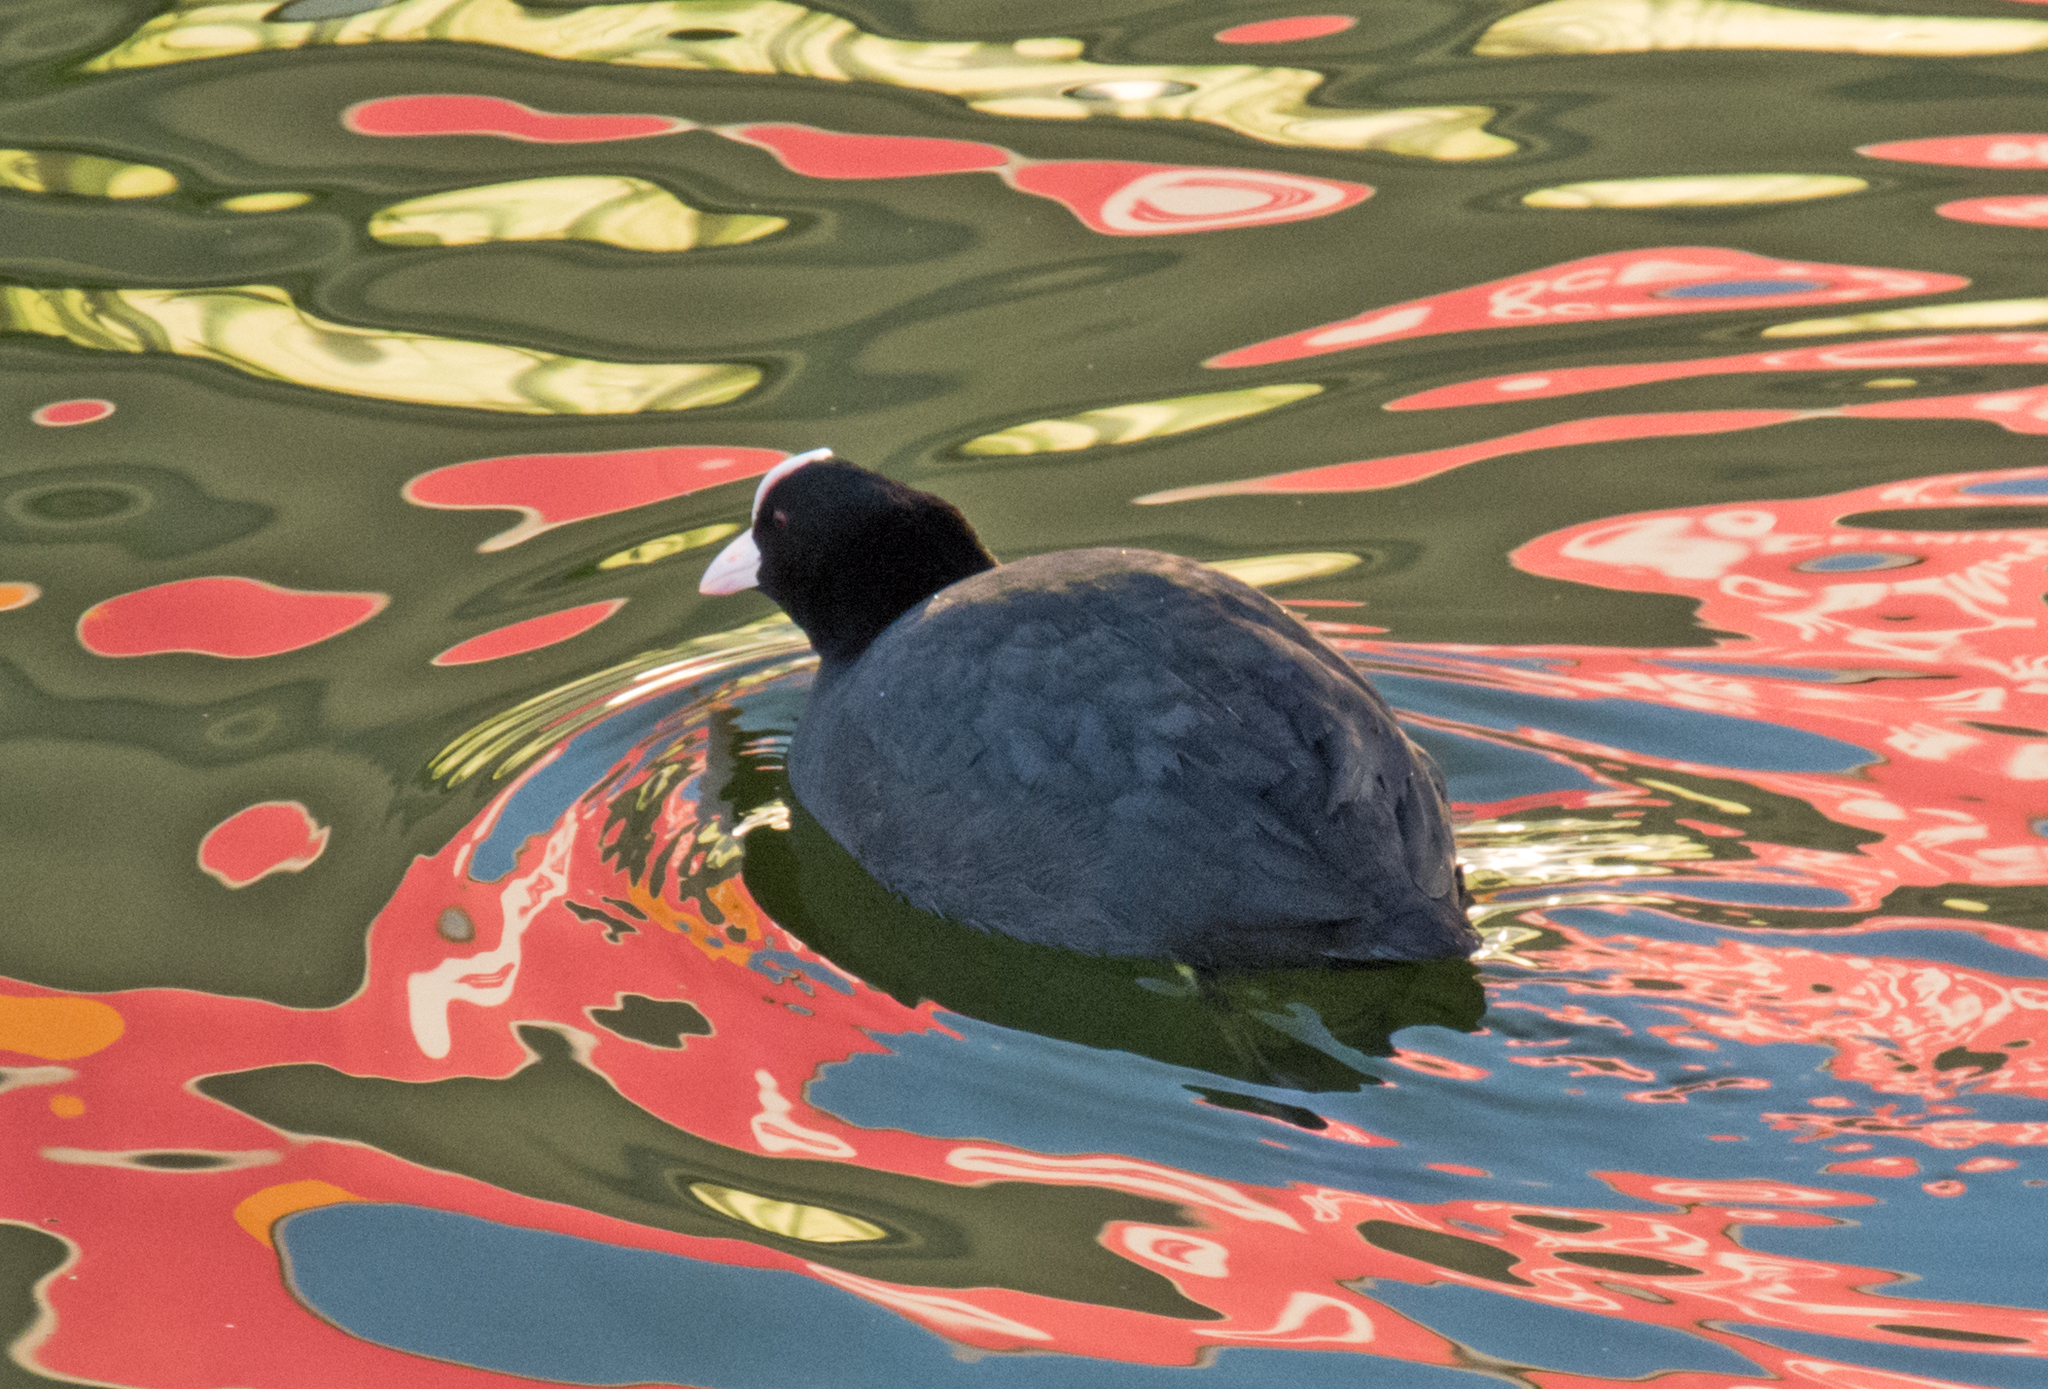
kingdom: Animalia
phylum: Chordata
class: Aves
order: Gruiformes
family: Rallidae
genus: Fulica
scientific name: Fulica atra
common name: Eurasian coot
